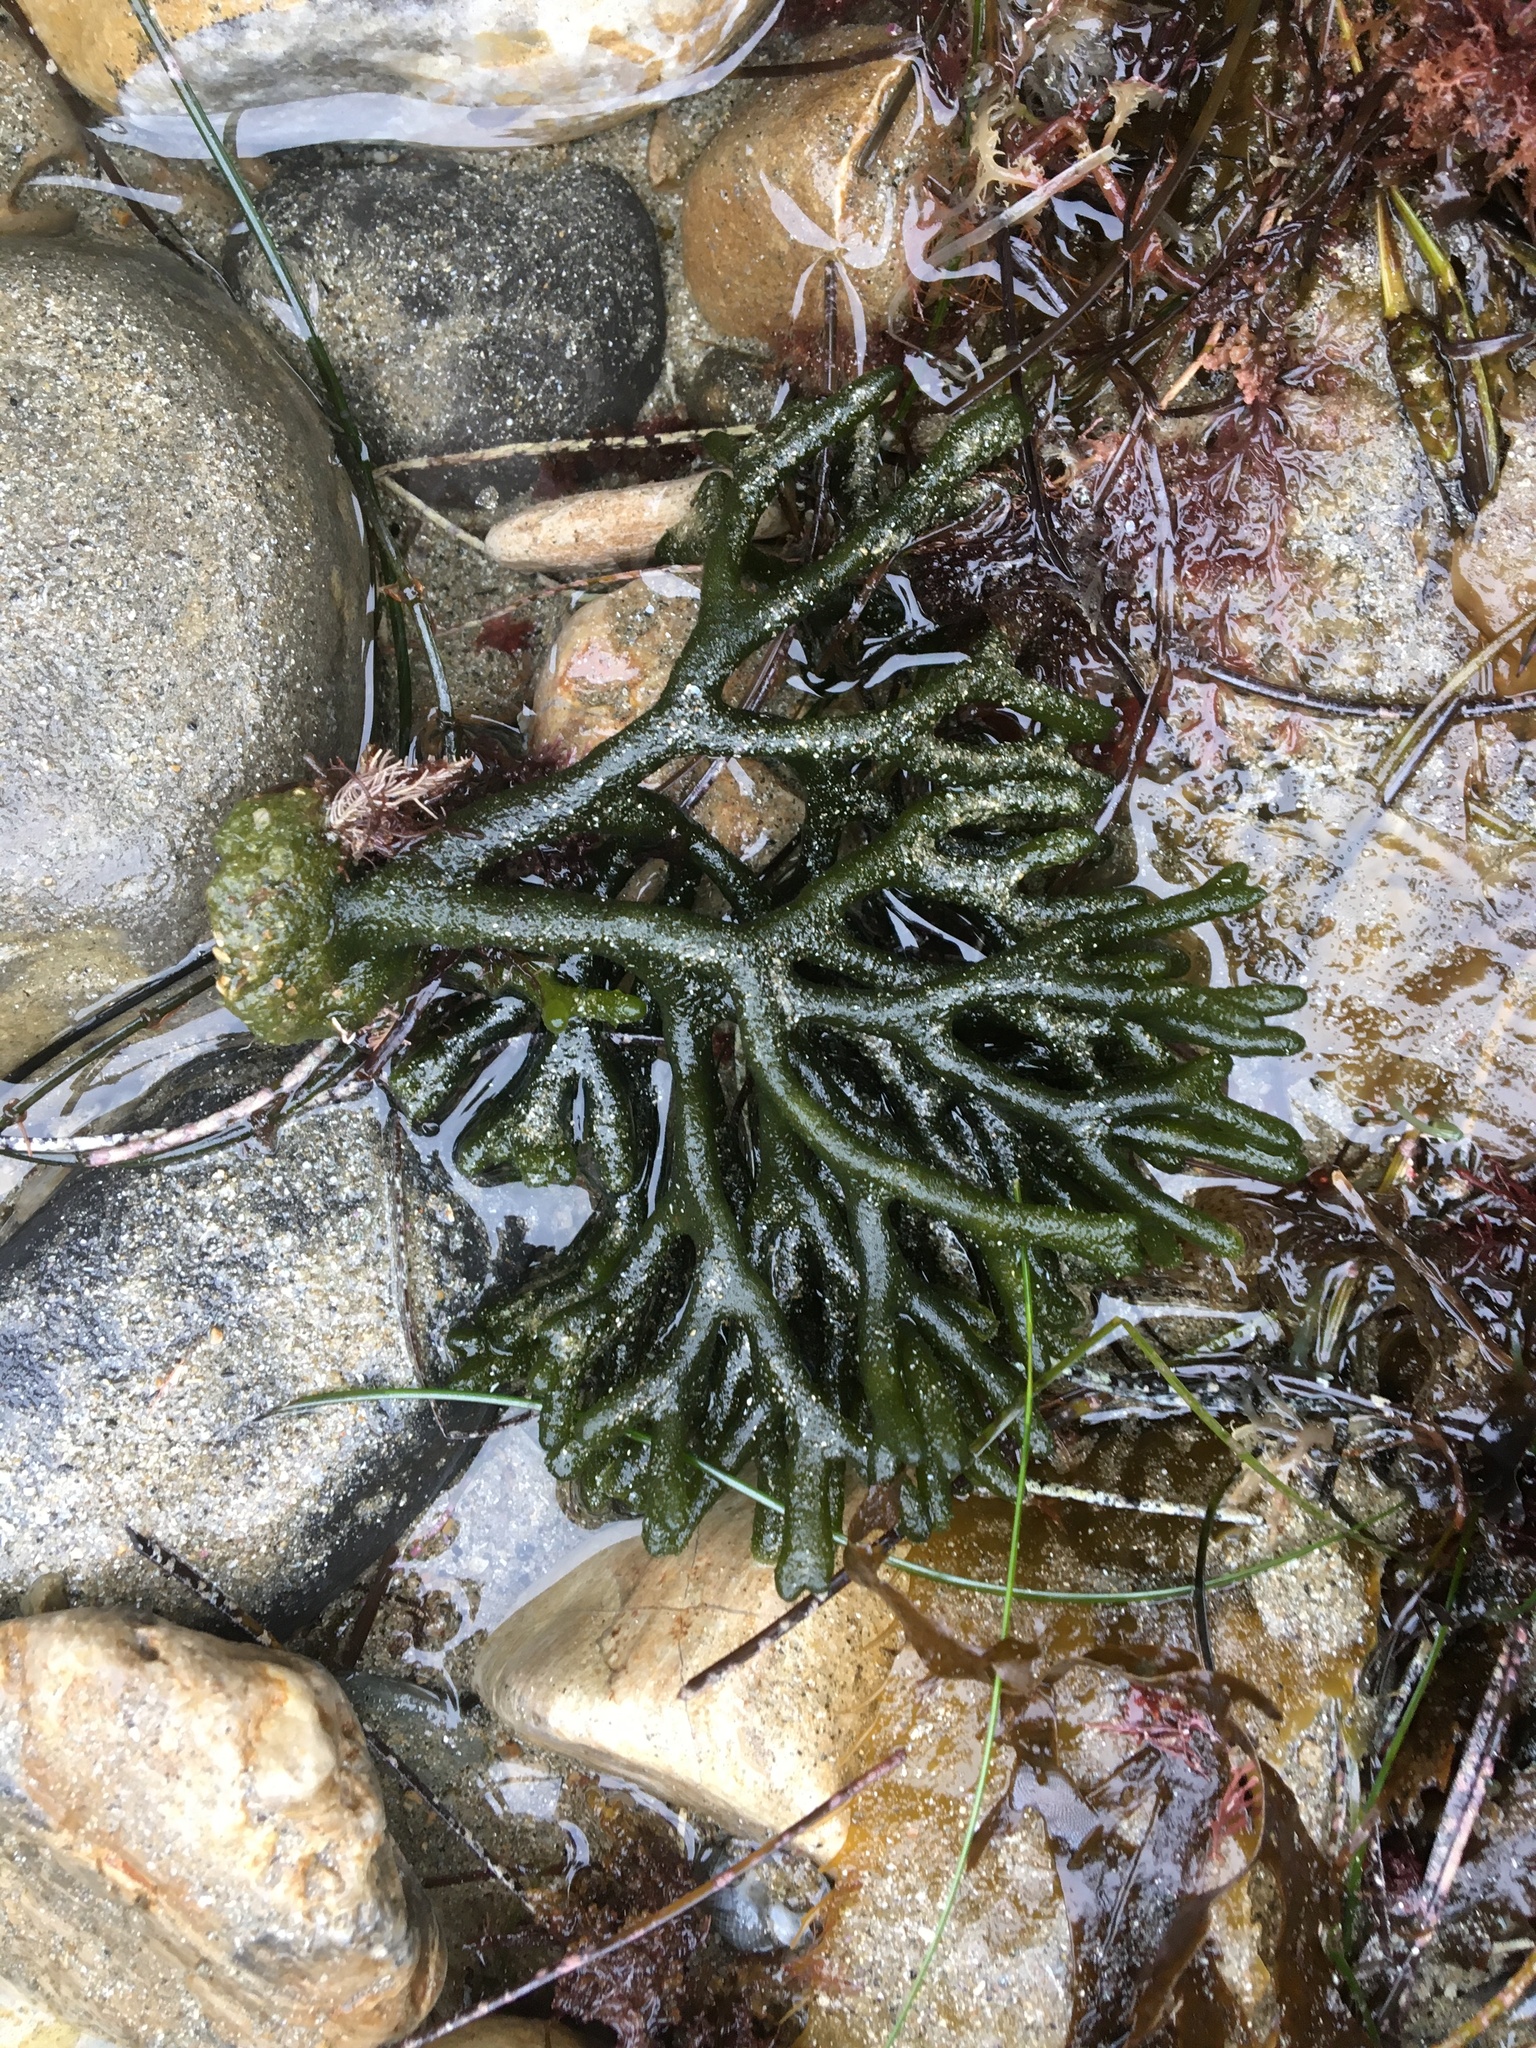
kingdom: Plantae
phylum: Chlorophyta
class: Ulvophyceae
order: Bryopsidales
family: Codiaceae
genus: Codium
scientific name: Codium fragile
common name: Dead man's fingers
